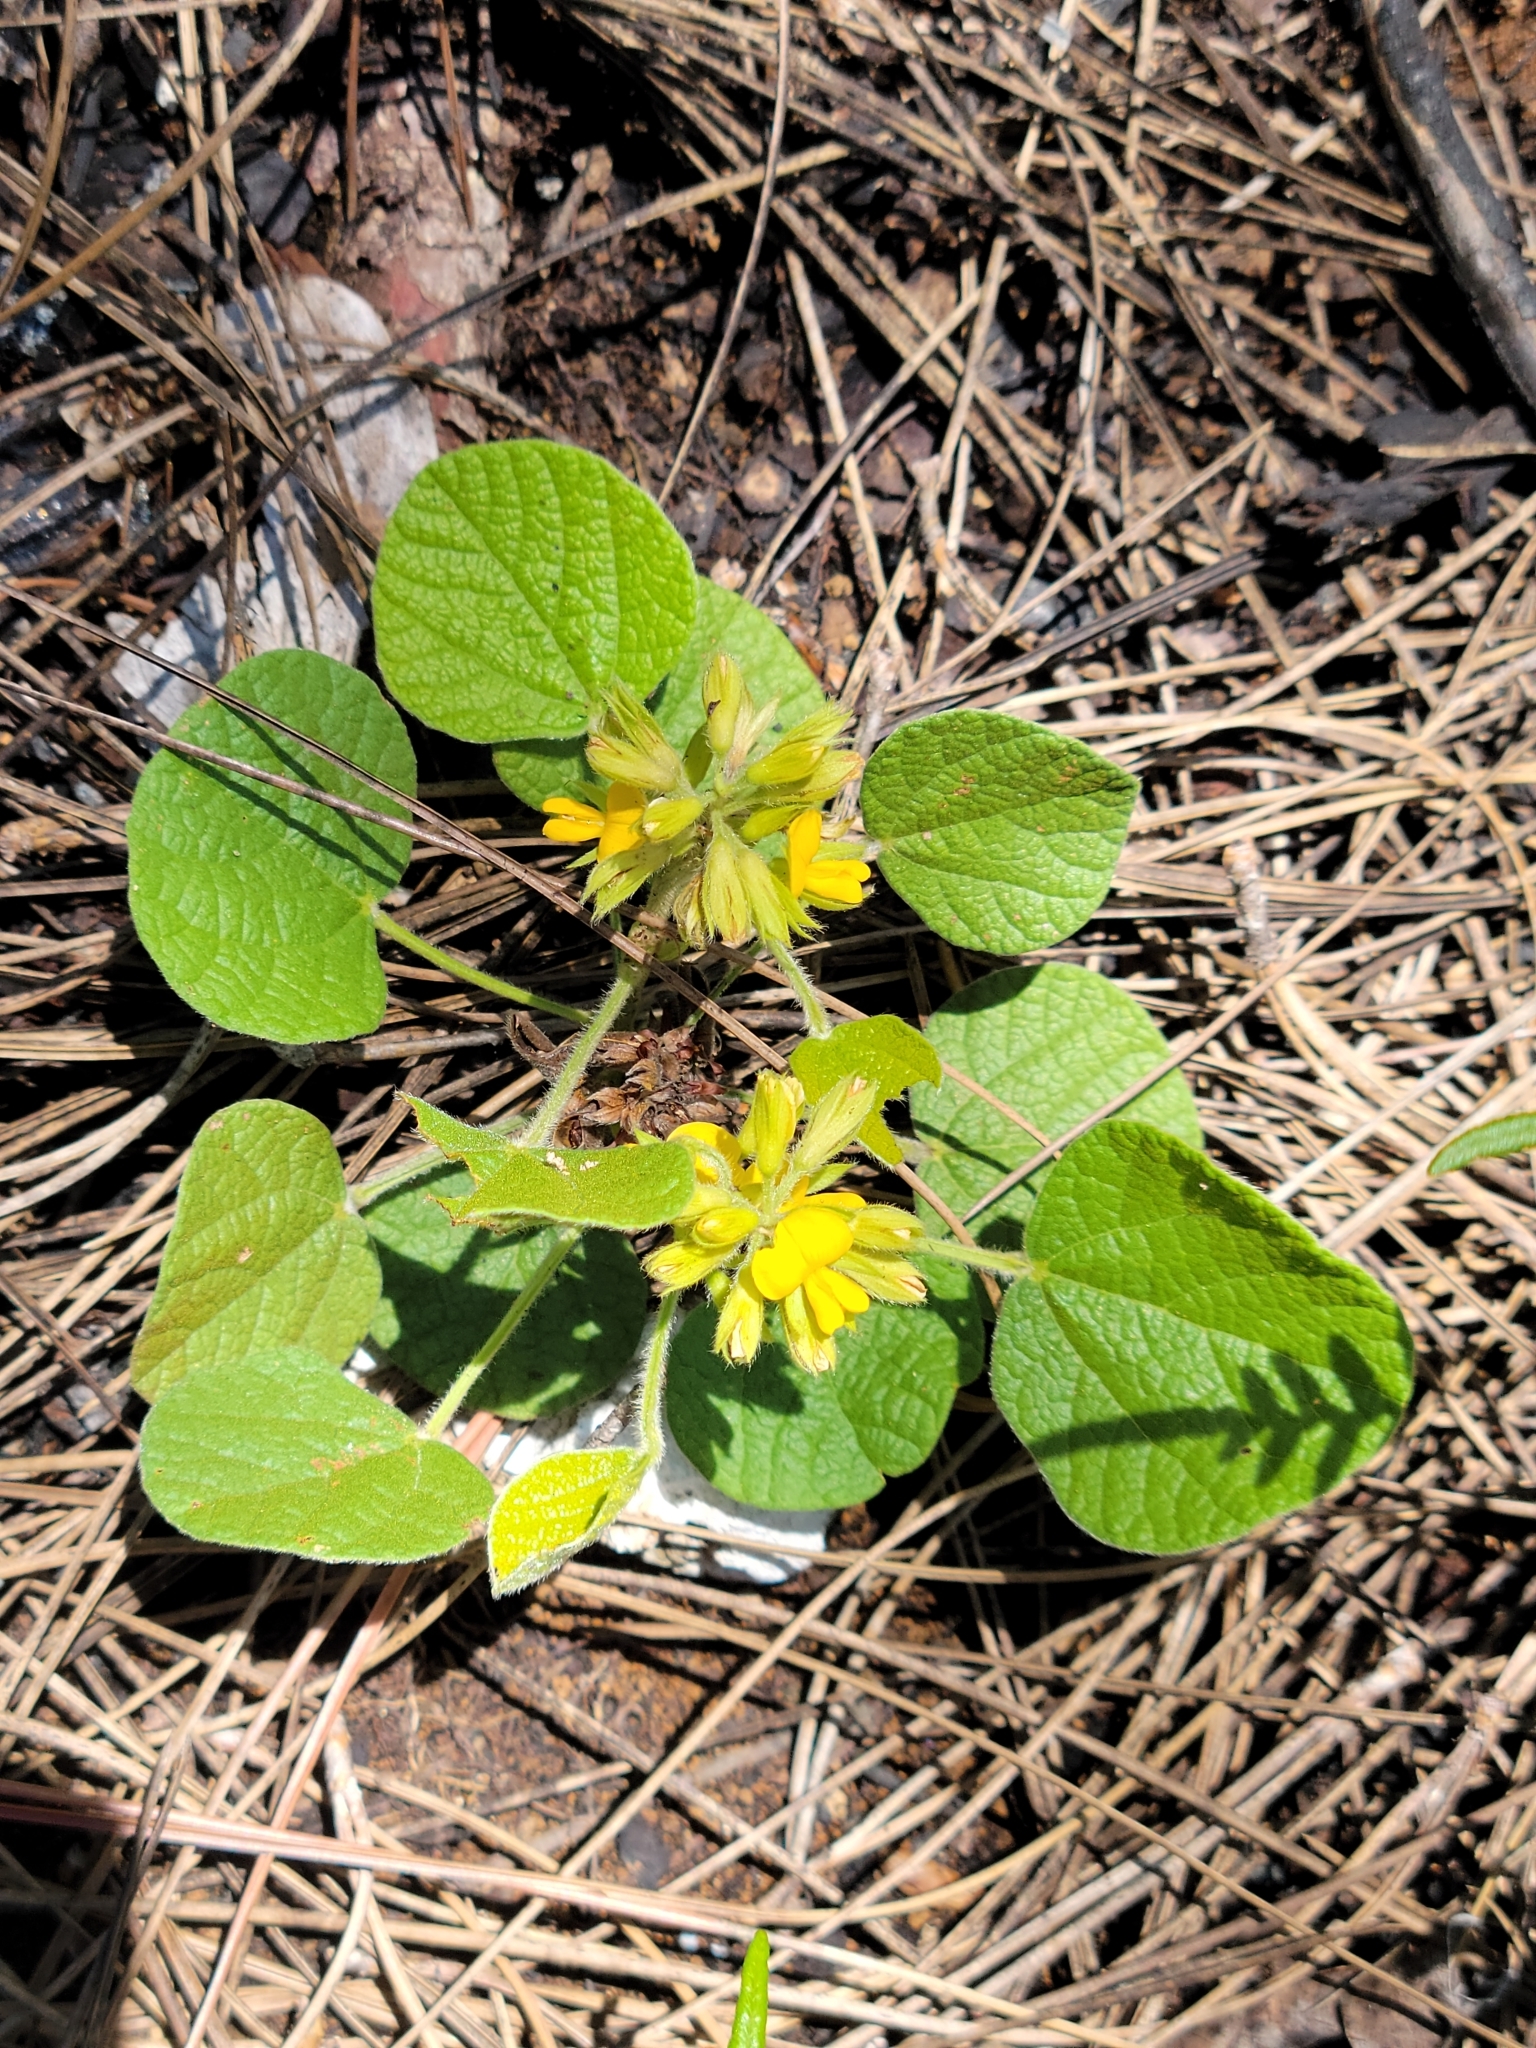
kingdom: Plantae
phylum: Tracheophyta
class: Magnoliopsida
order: Fabales
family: Fabaceae
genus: Rhynchosia
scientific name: Rhynchosia reniformis
